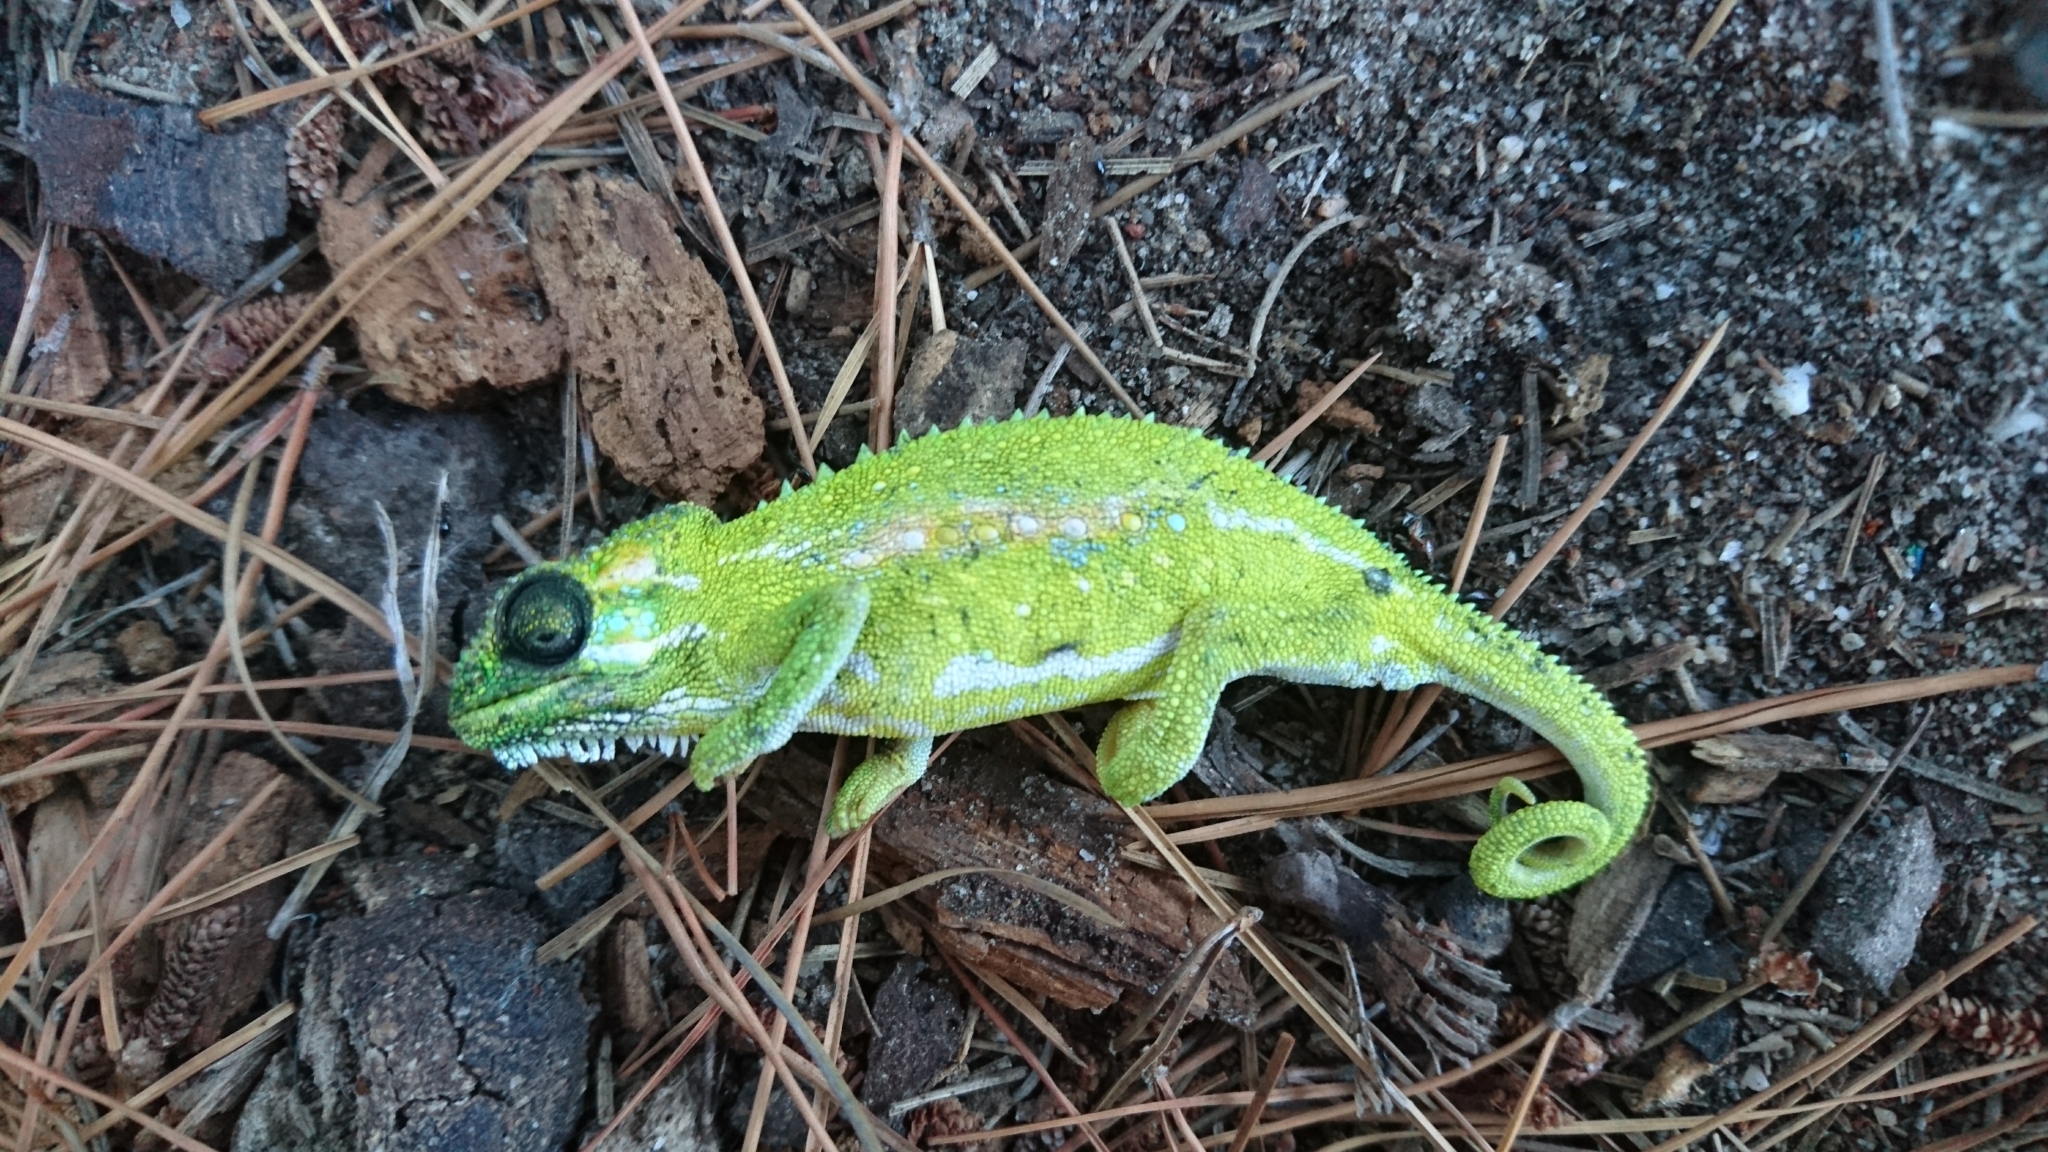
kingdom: Animalia
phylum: Chordata
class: Squamata
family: Chamaeleonidae
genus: Bradypodion
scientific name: Bradypodion pumilum
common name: Cape dwarf chameleon
